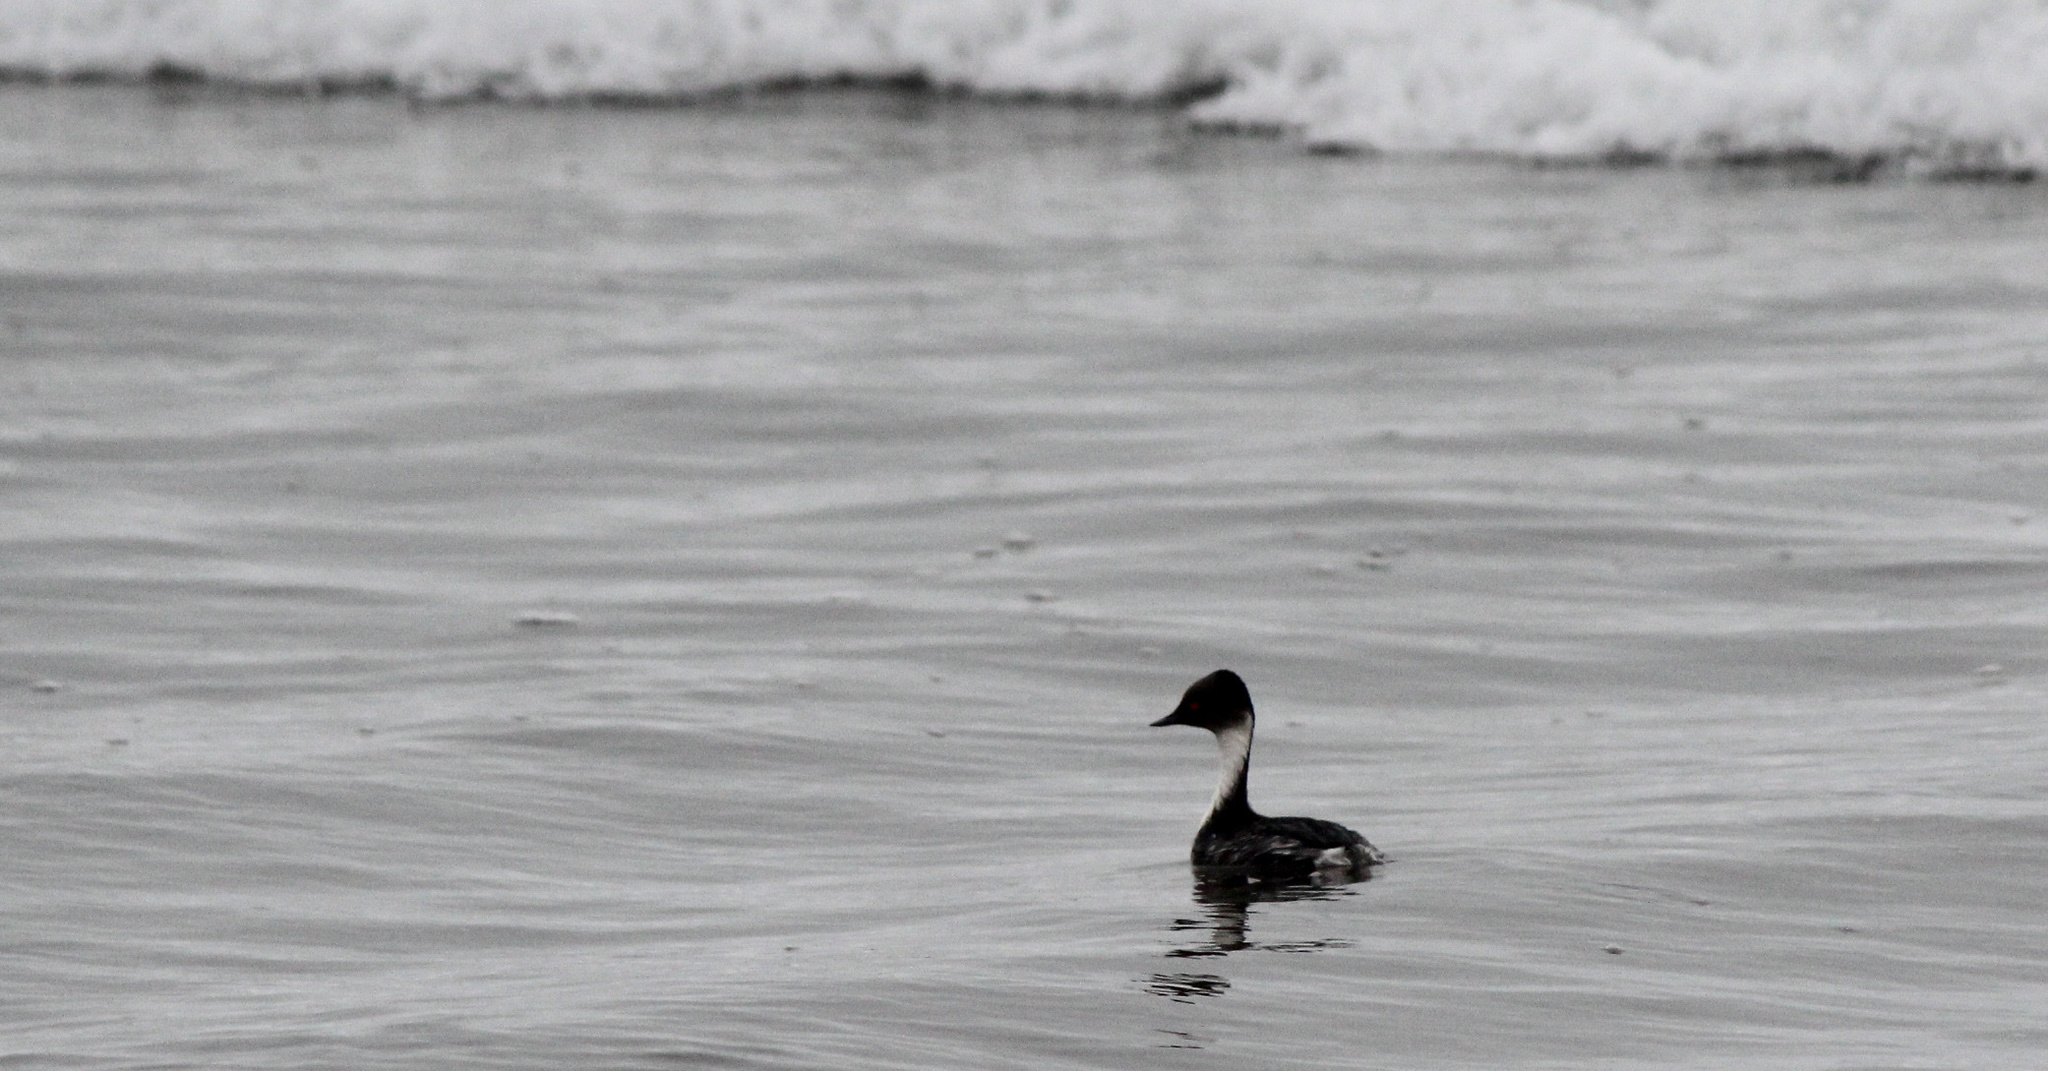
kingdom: Animalia
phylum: Chordata
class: Aves
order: Podicipediformes
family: Podicipedidae
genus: Podiceps
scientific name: Podiceps occipitalis
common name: Silvery grebe
